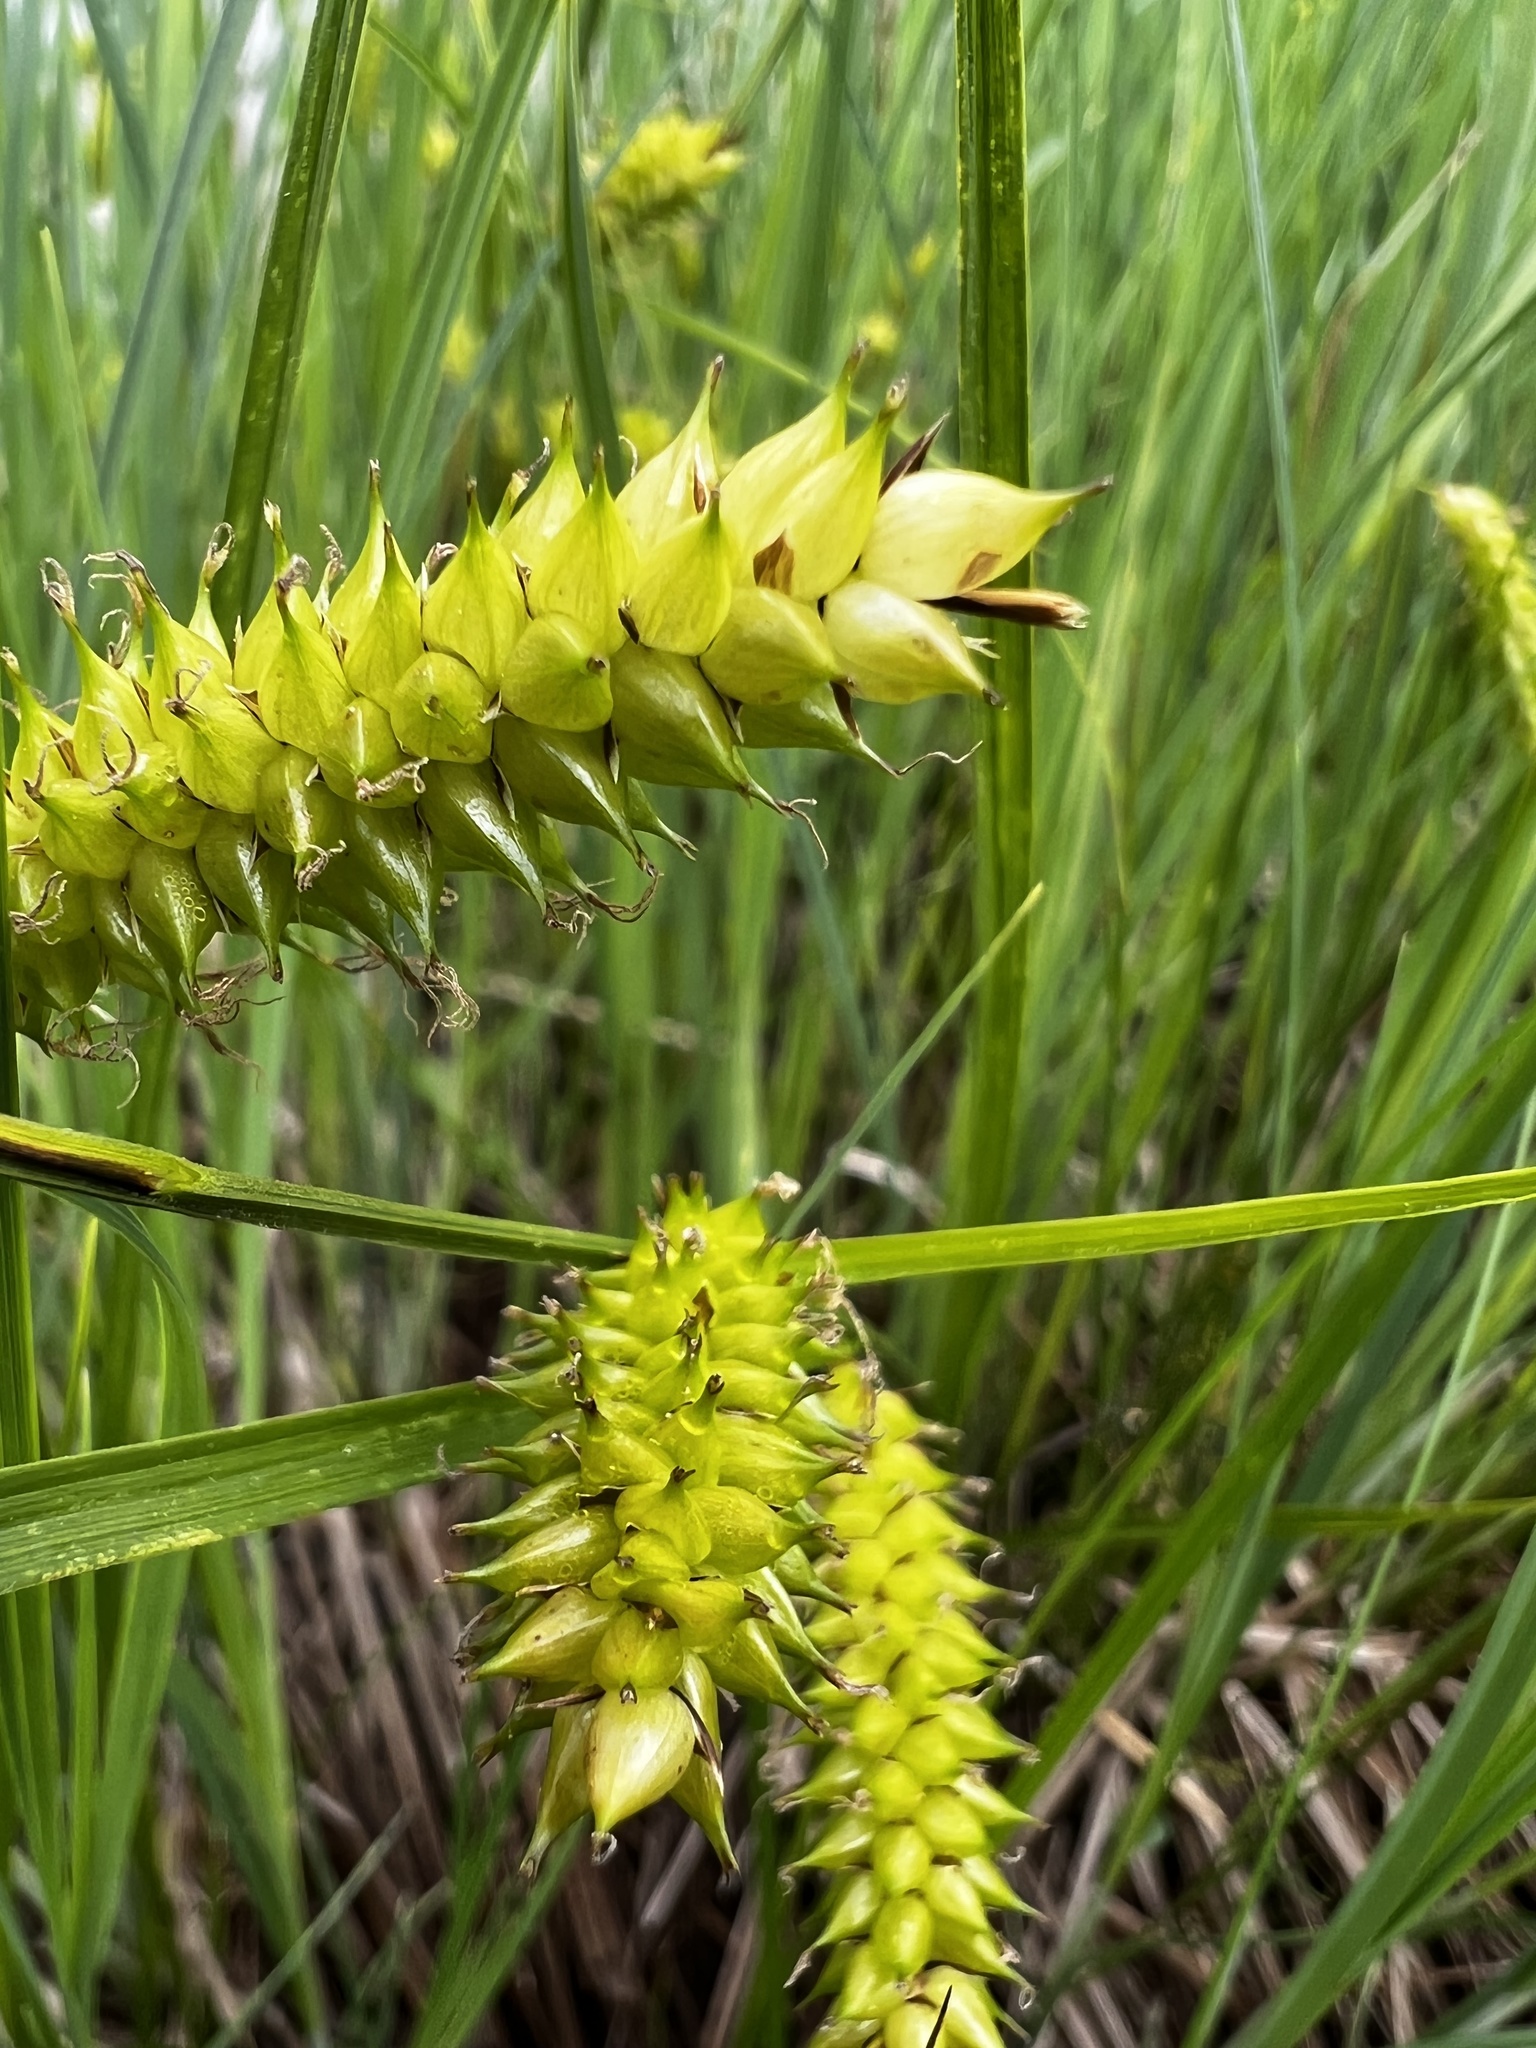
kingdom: Plantae
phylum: Tracheophyta
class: Liliopsida
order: Poales
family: Cyperaceae
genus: Carex
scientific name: Carex rostrata
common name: Bottle sedge
